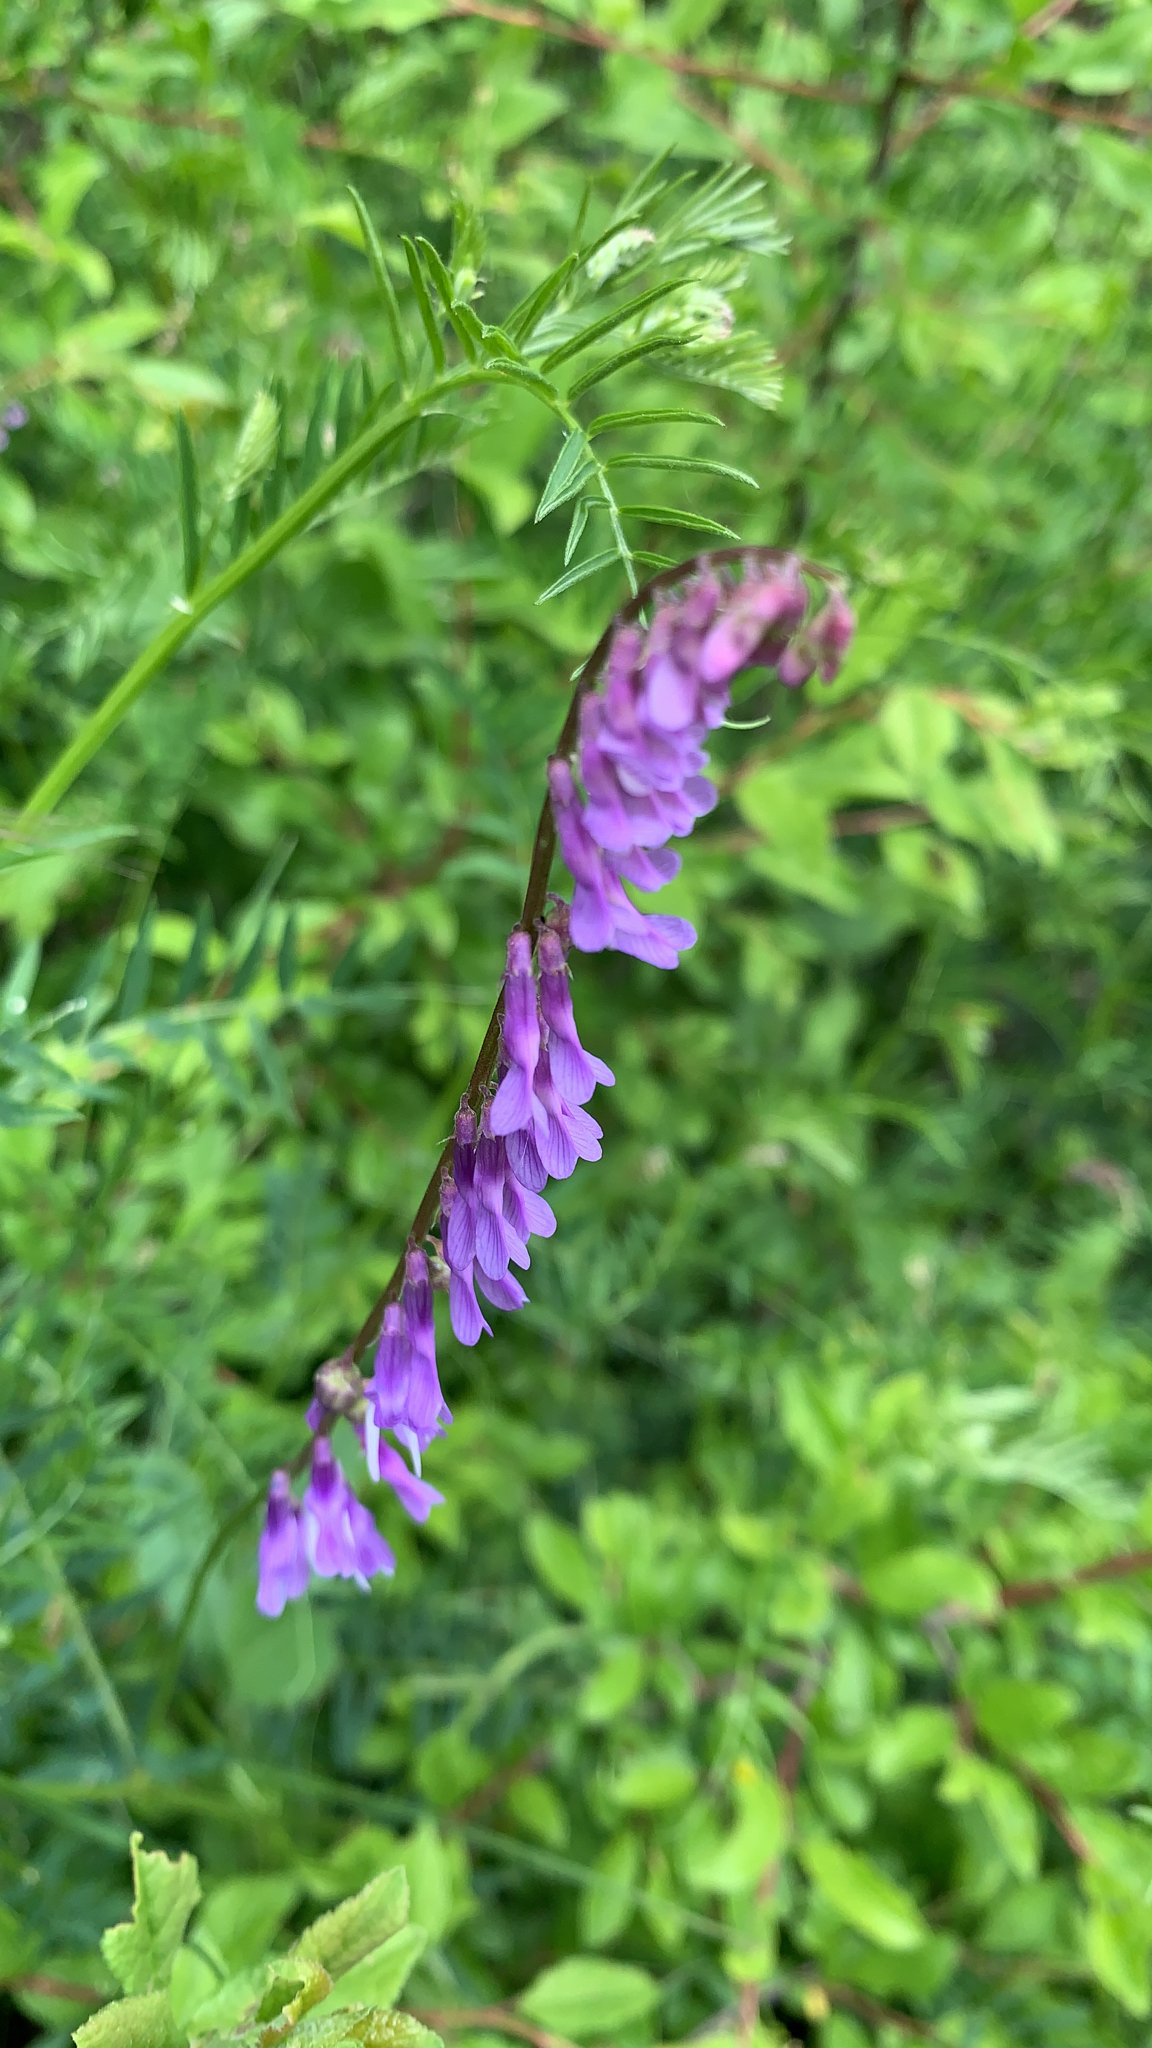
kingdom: Plantae
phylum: Tracheophyta
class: Magnoliopsida
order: Fabales
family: Fabaceae
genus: Vicia
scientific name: Vicia cracca
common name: Bird vetch
